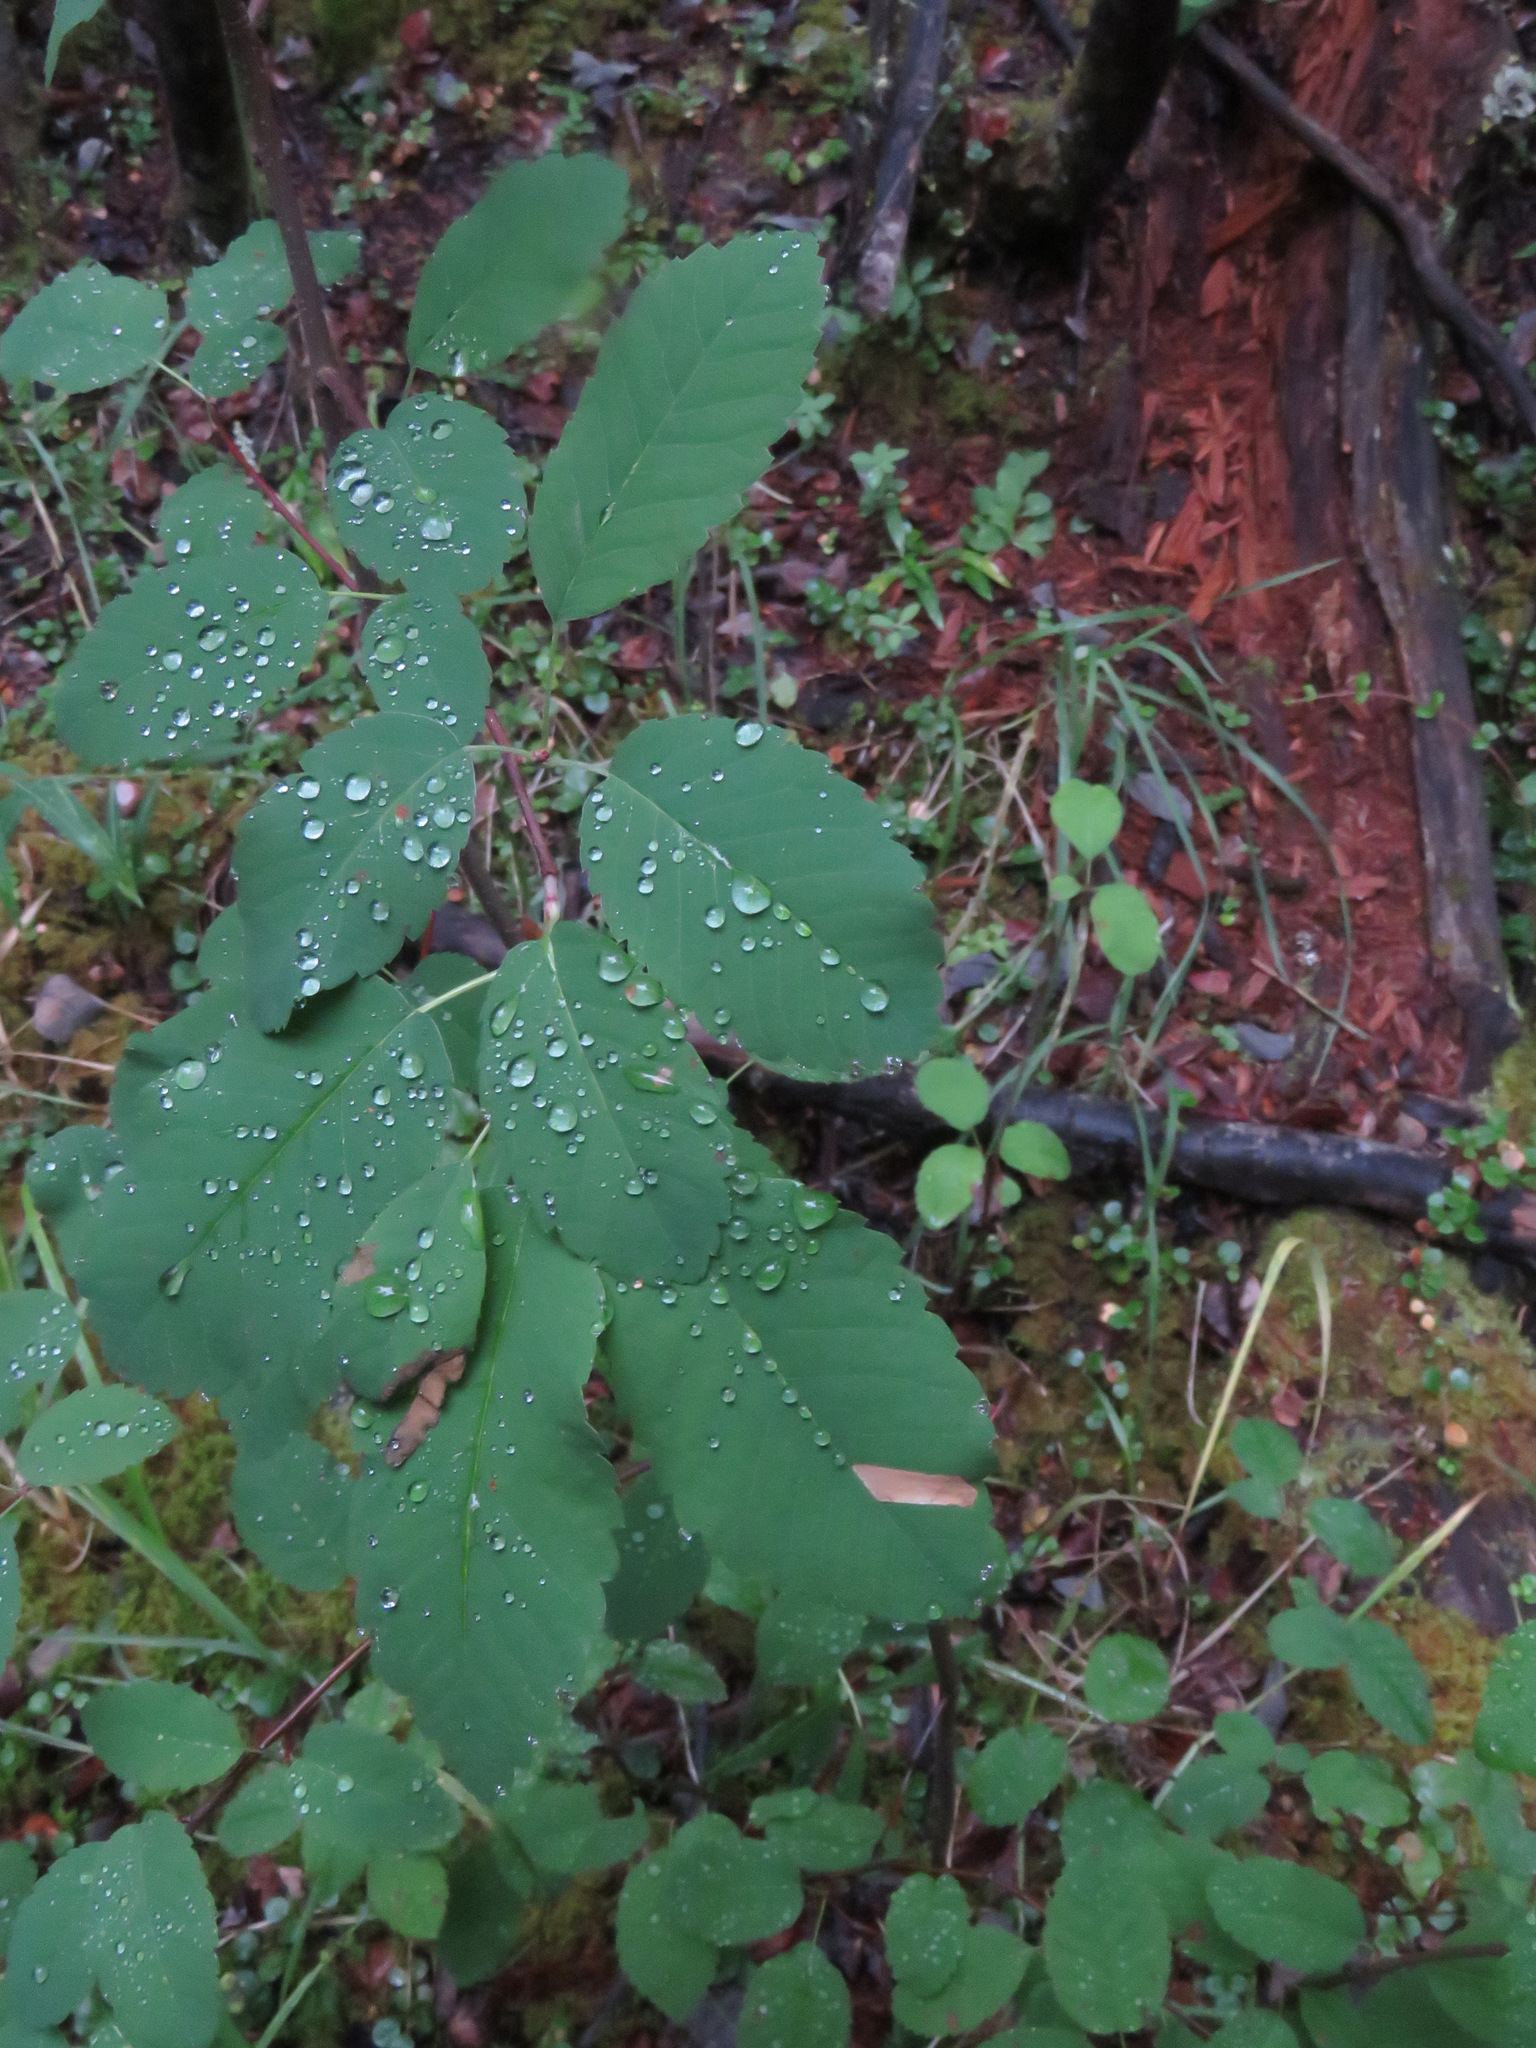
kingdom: Plantae
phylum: Tracheophyta
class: Magnoliopsida
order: Rosales
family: Rosaceae
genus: Amelanchier
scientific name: Amelanchier alnifolia
